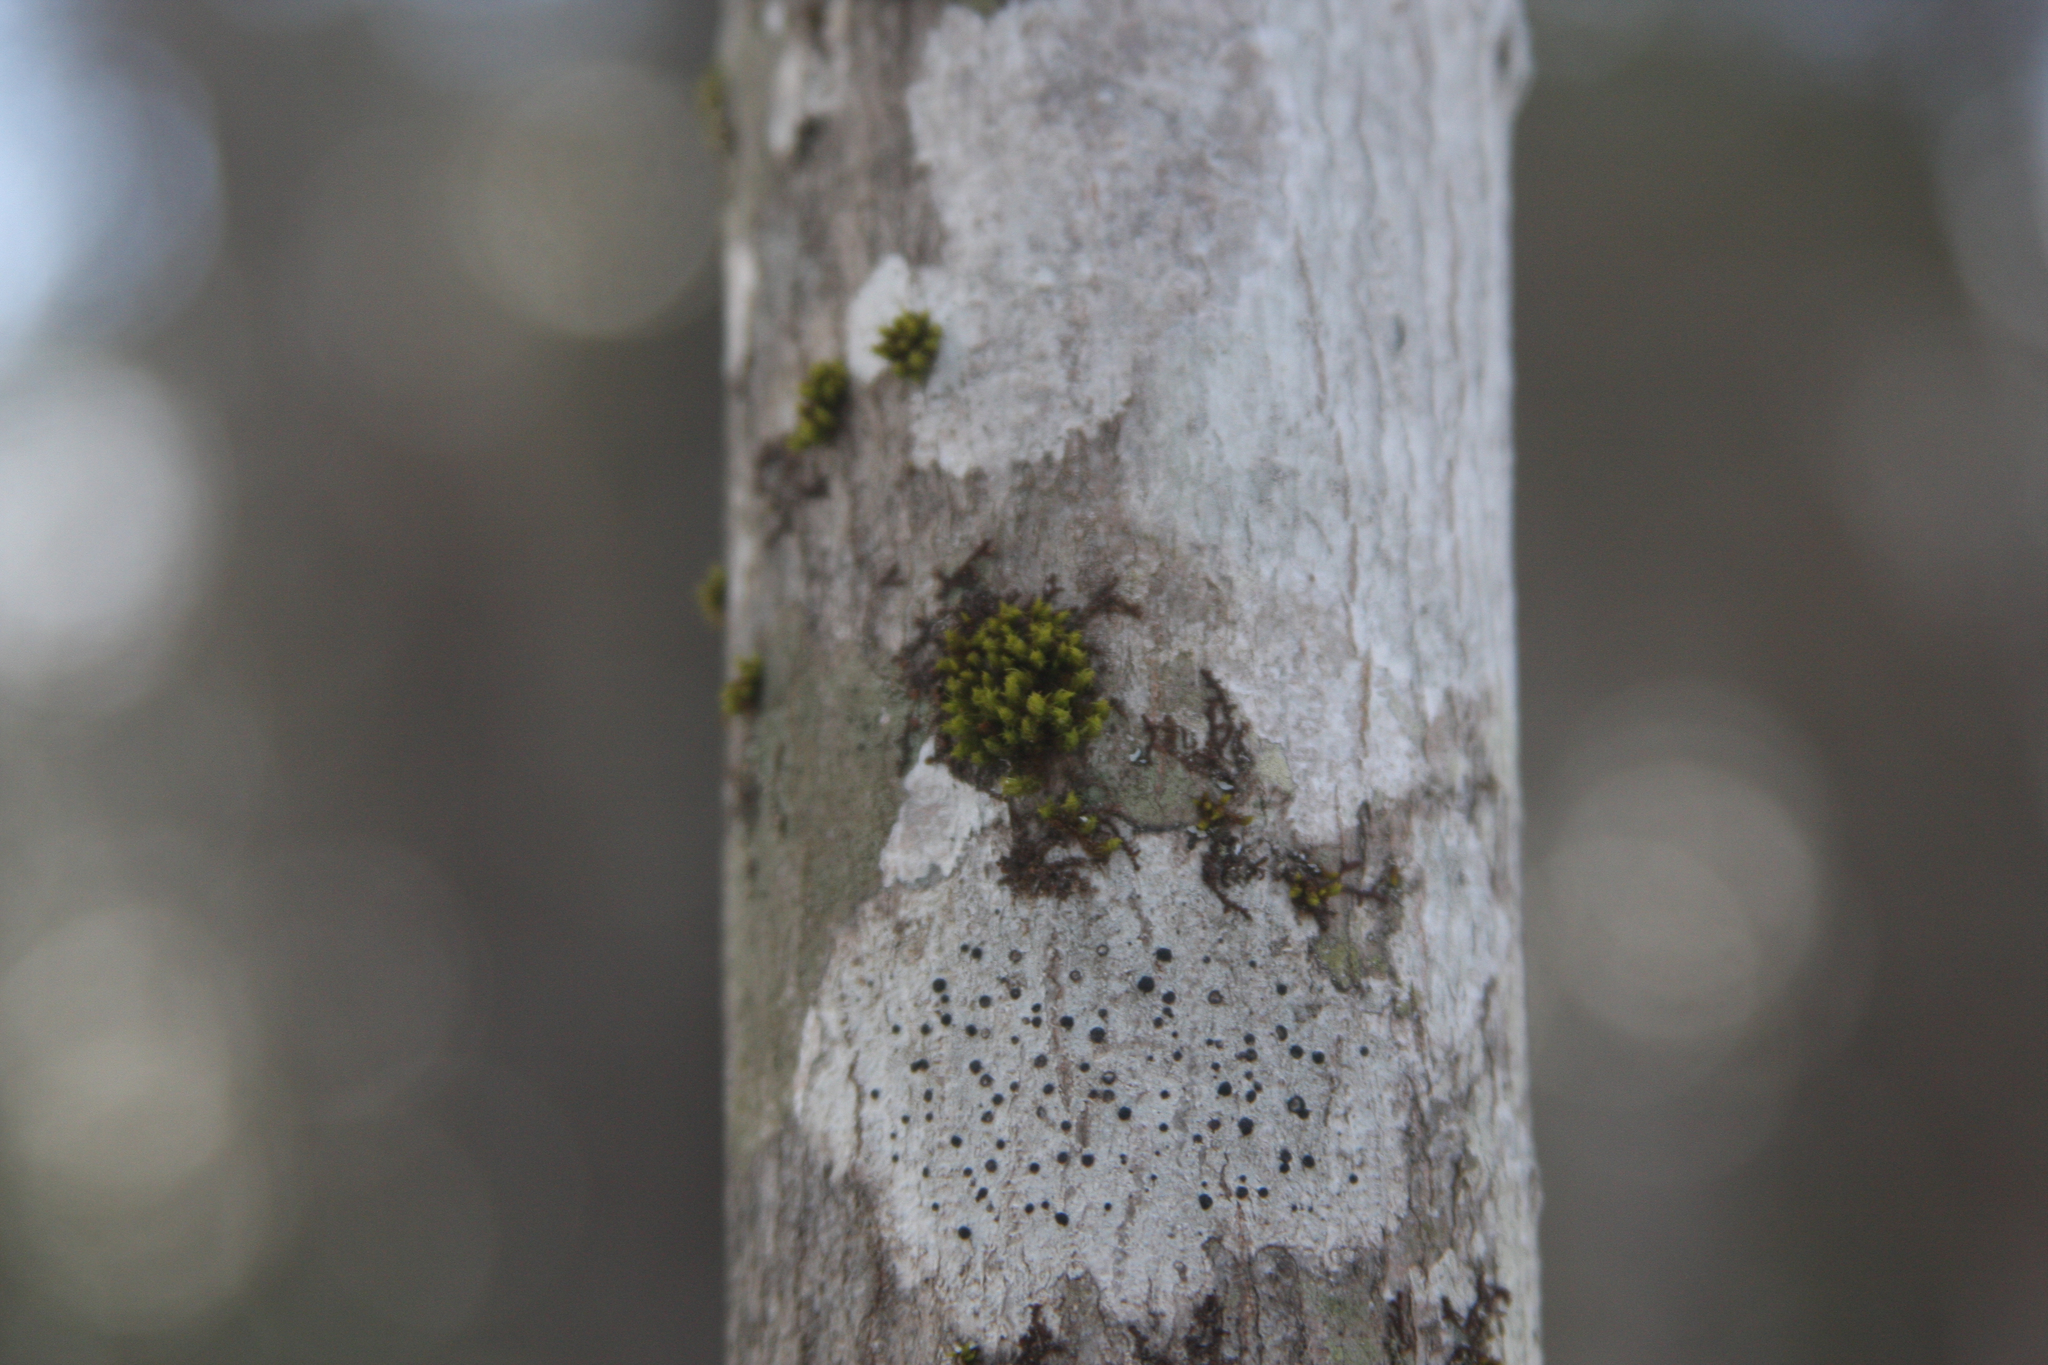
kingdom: Plantae
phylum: Bryophyta
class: Bryopsida
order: Orthotrichales
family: Orthotrichaceae
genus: Ulota
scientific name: Ulota crispa
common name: Crisped pincushion moss
